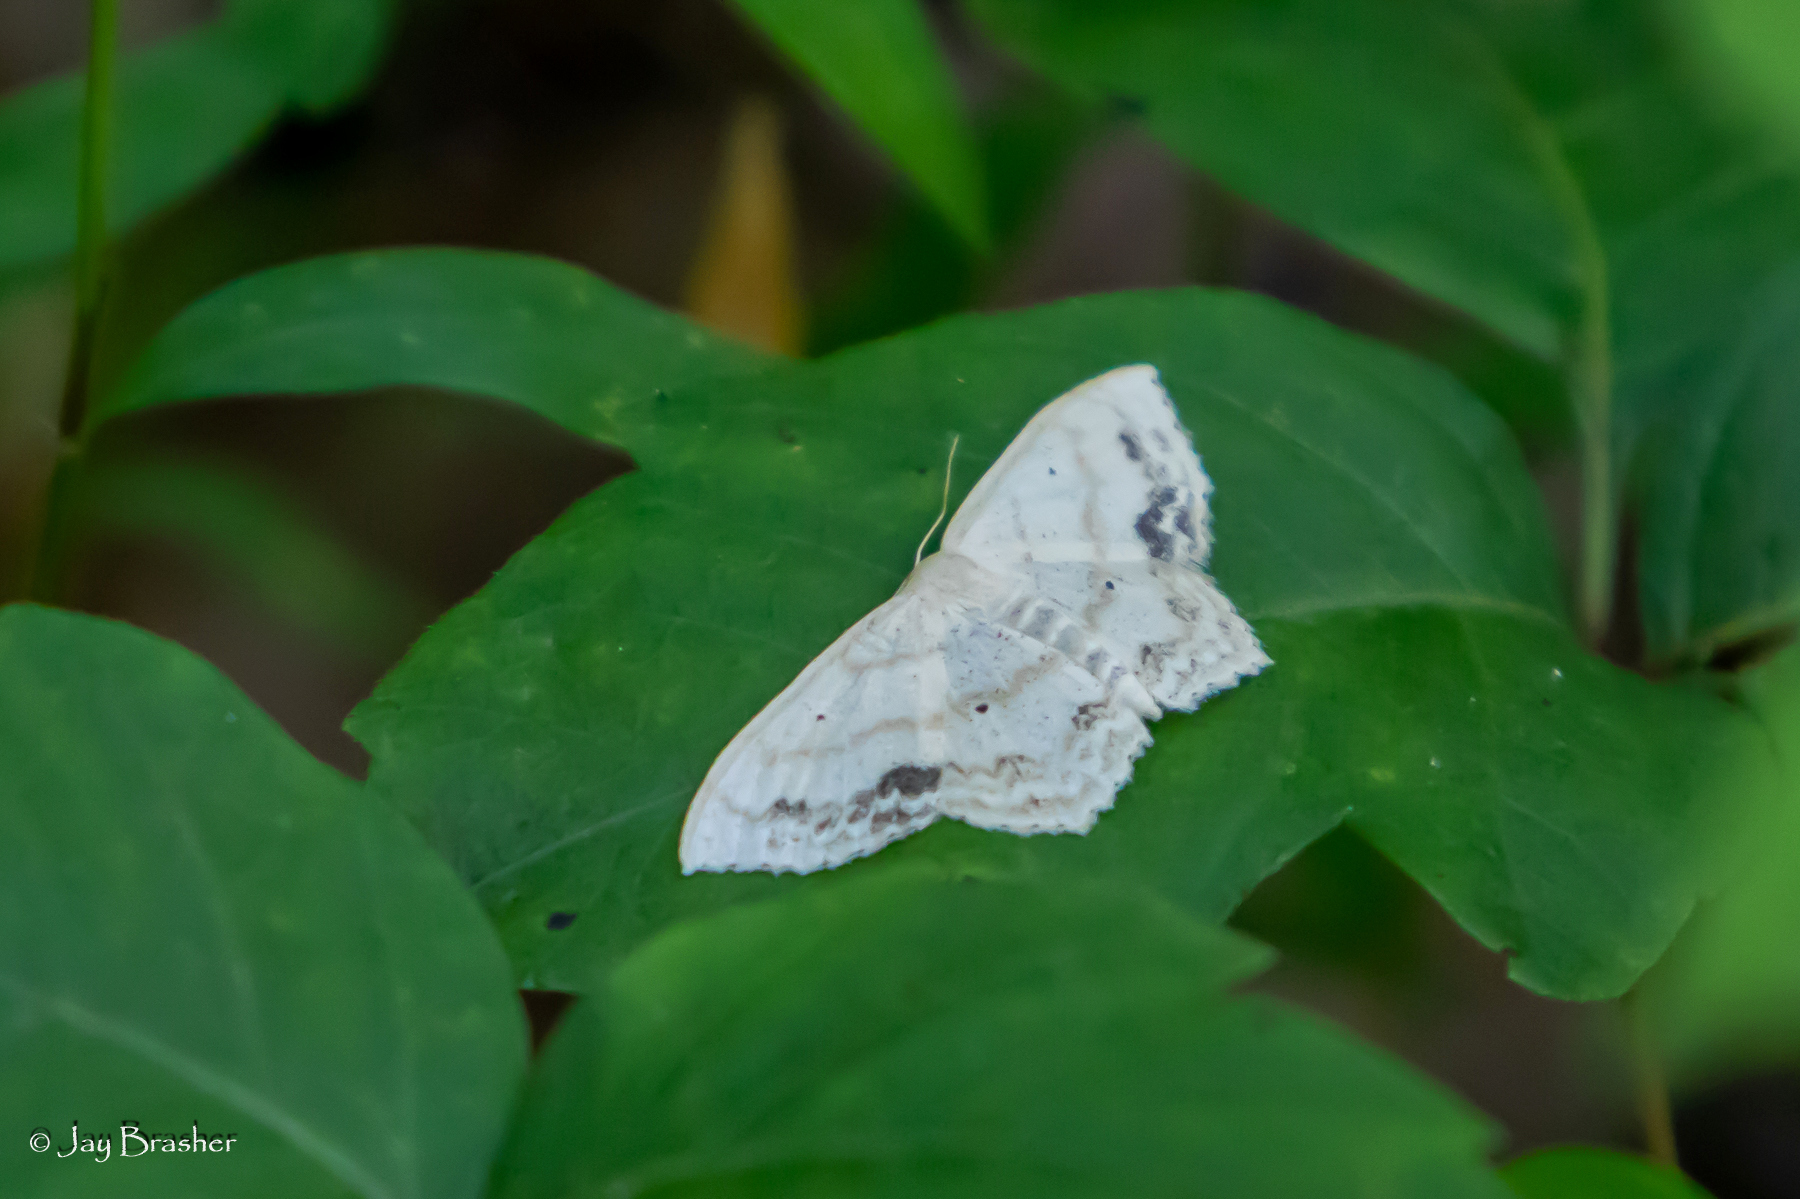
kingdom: Animalia
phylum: Arthropoda
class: Insecta
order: Lepidoptera
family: Geometridae
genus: Scopula
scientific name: Scopula limboundata
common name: Large lace border
